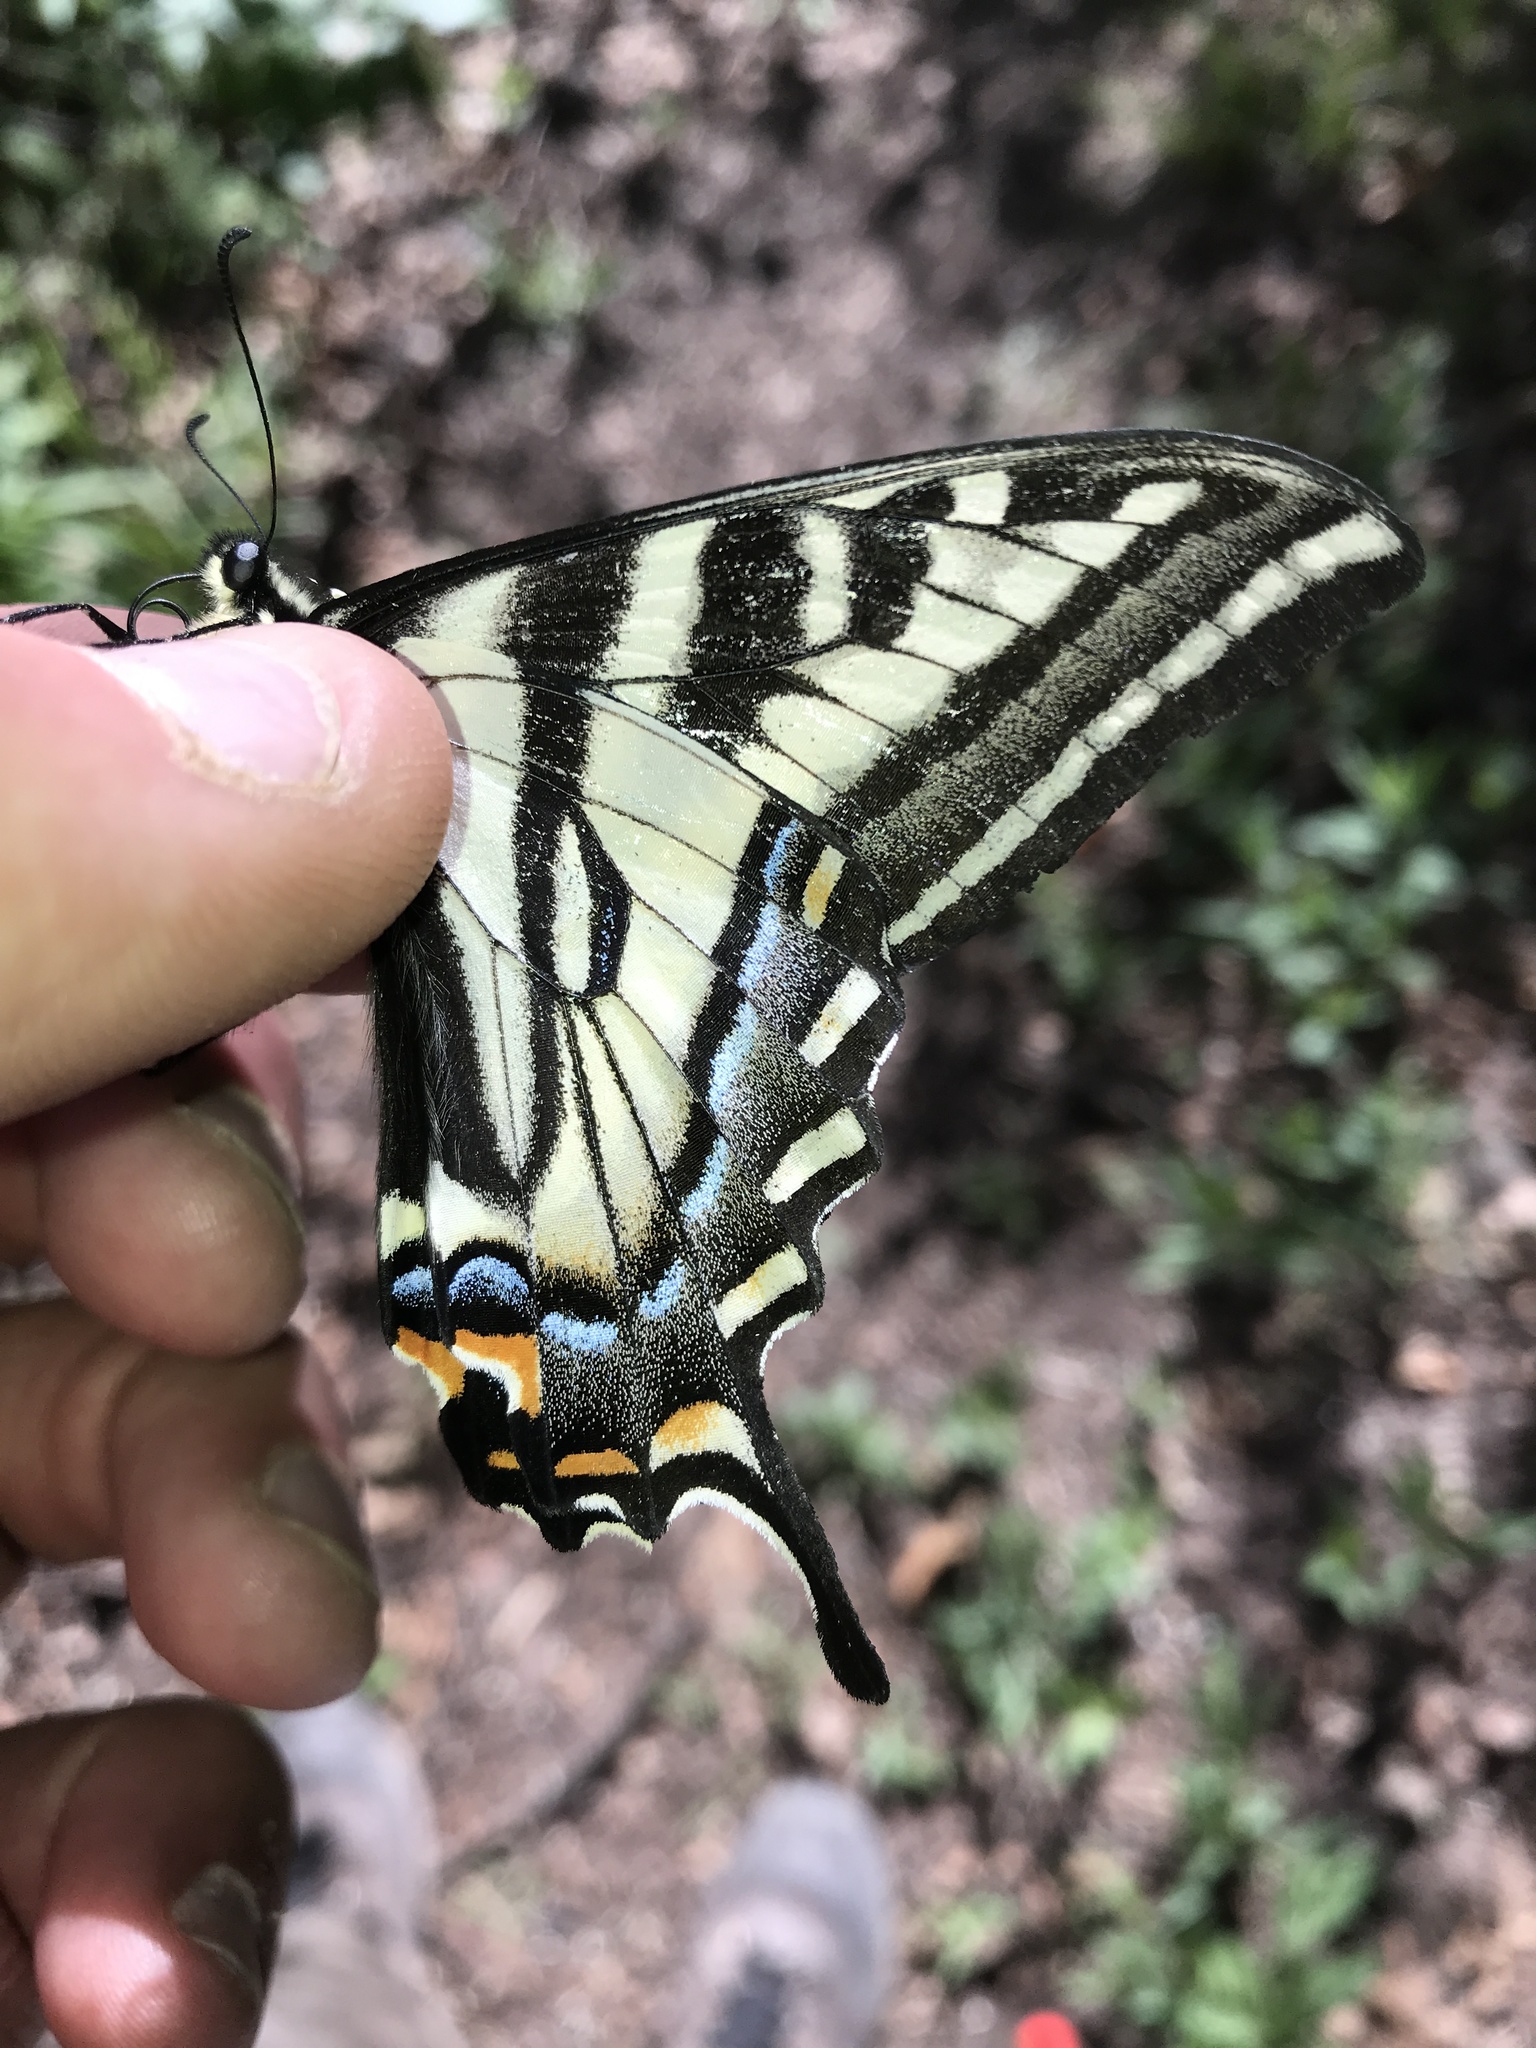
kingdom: Animalia
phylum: Arthropoda
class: Insecta
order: Lepidoptera
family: Papilionidae
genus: Papilio
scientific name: Papilio eurymedon
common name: Pale tiger swallowtail
